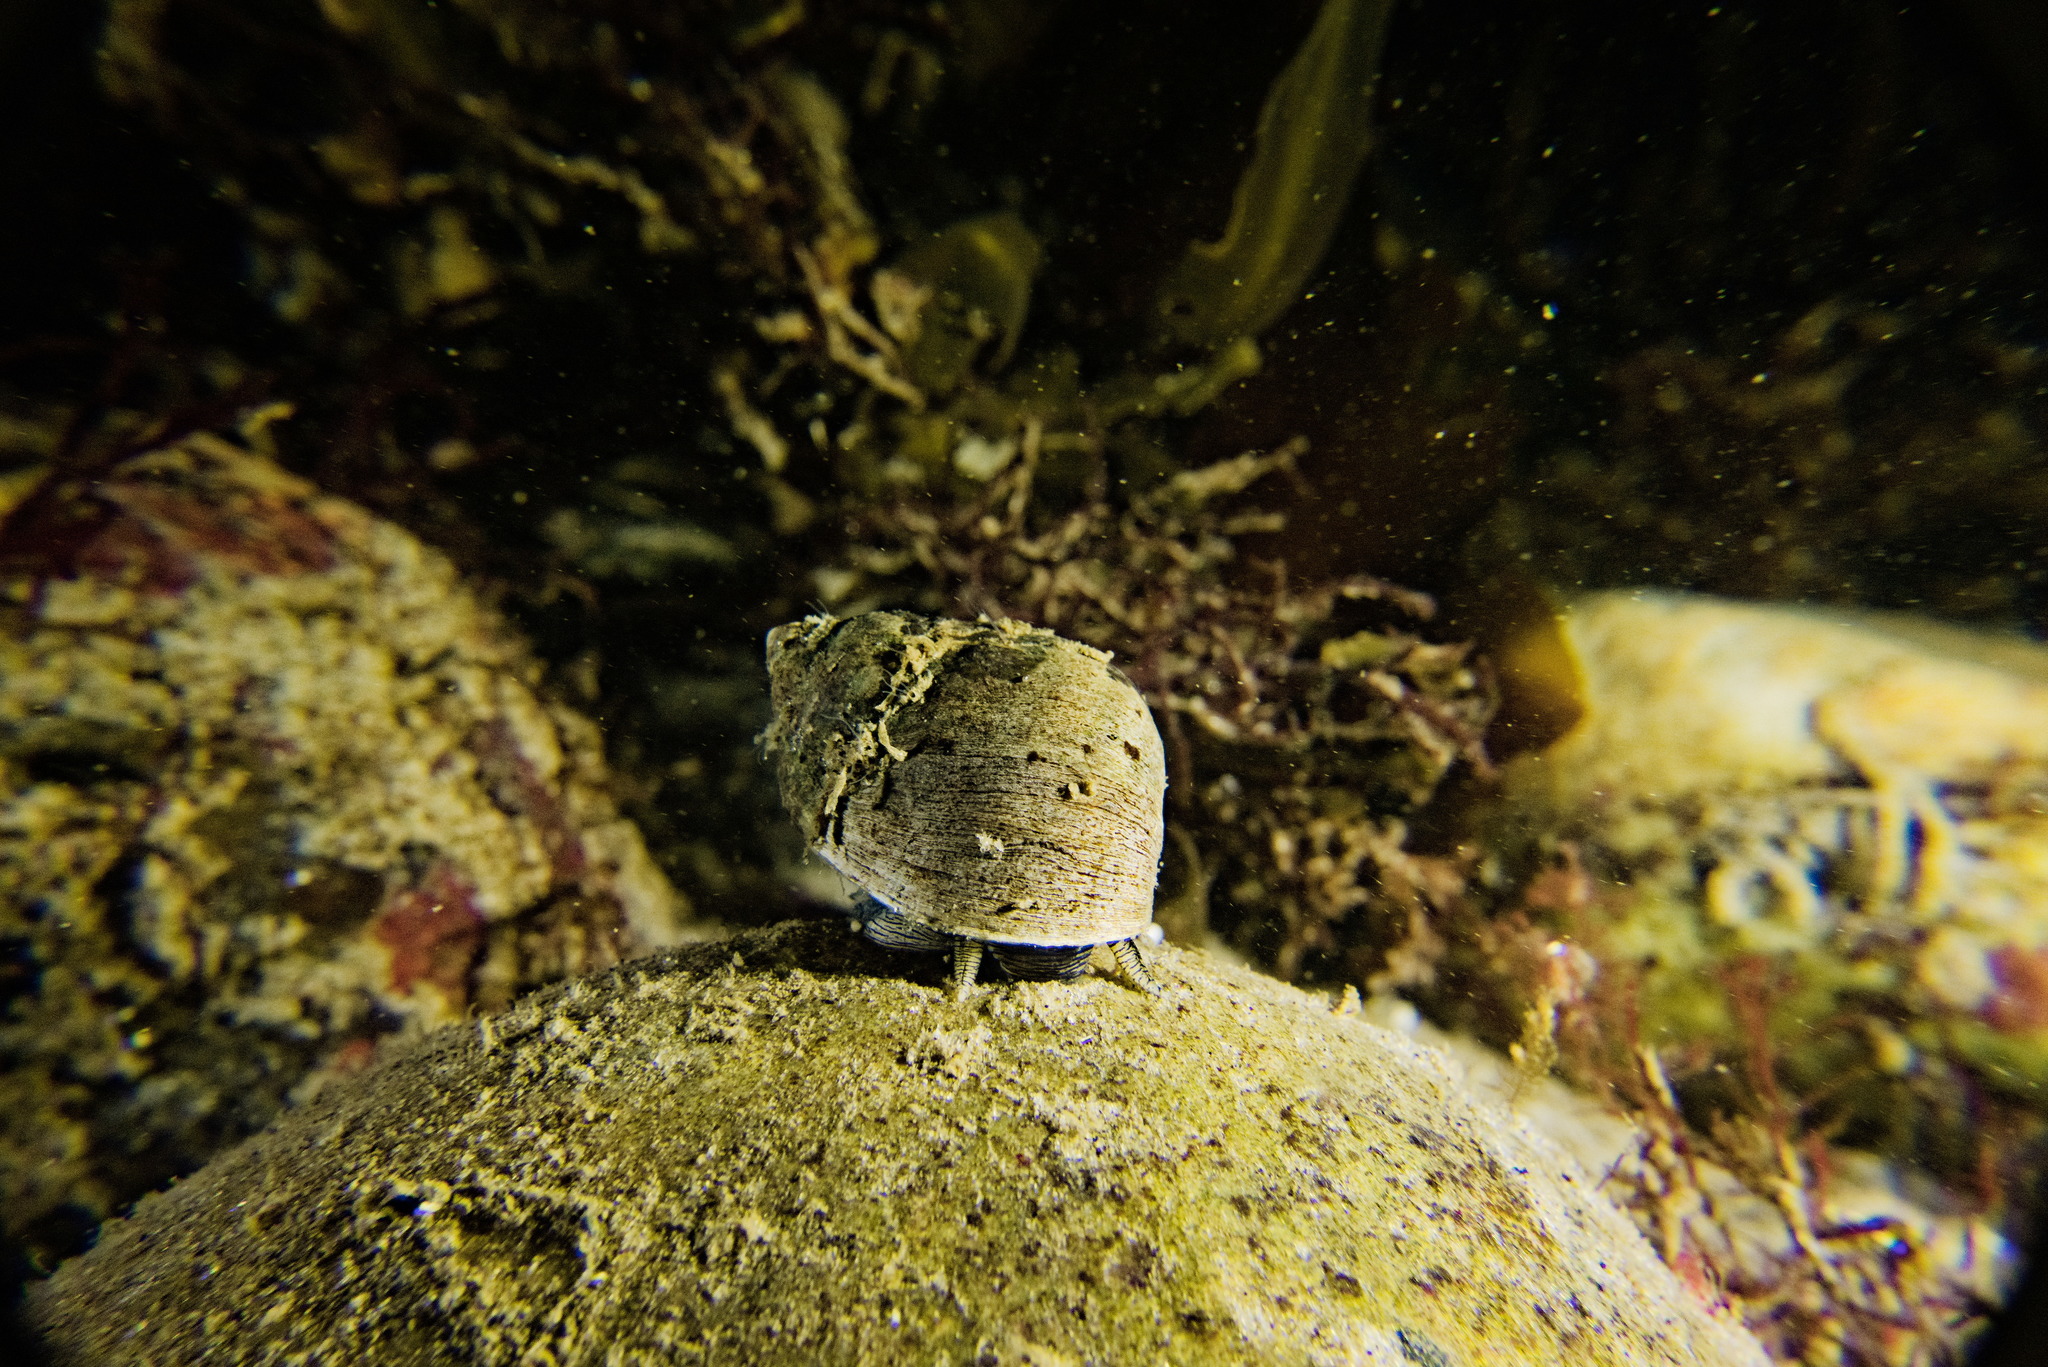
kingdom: Animalia
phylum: Mollusca
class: Gastropoda
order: Littorinimorpha
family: Littorinidae
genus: Littorina
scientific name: Littorina littorea
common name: Common periwinkle
